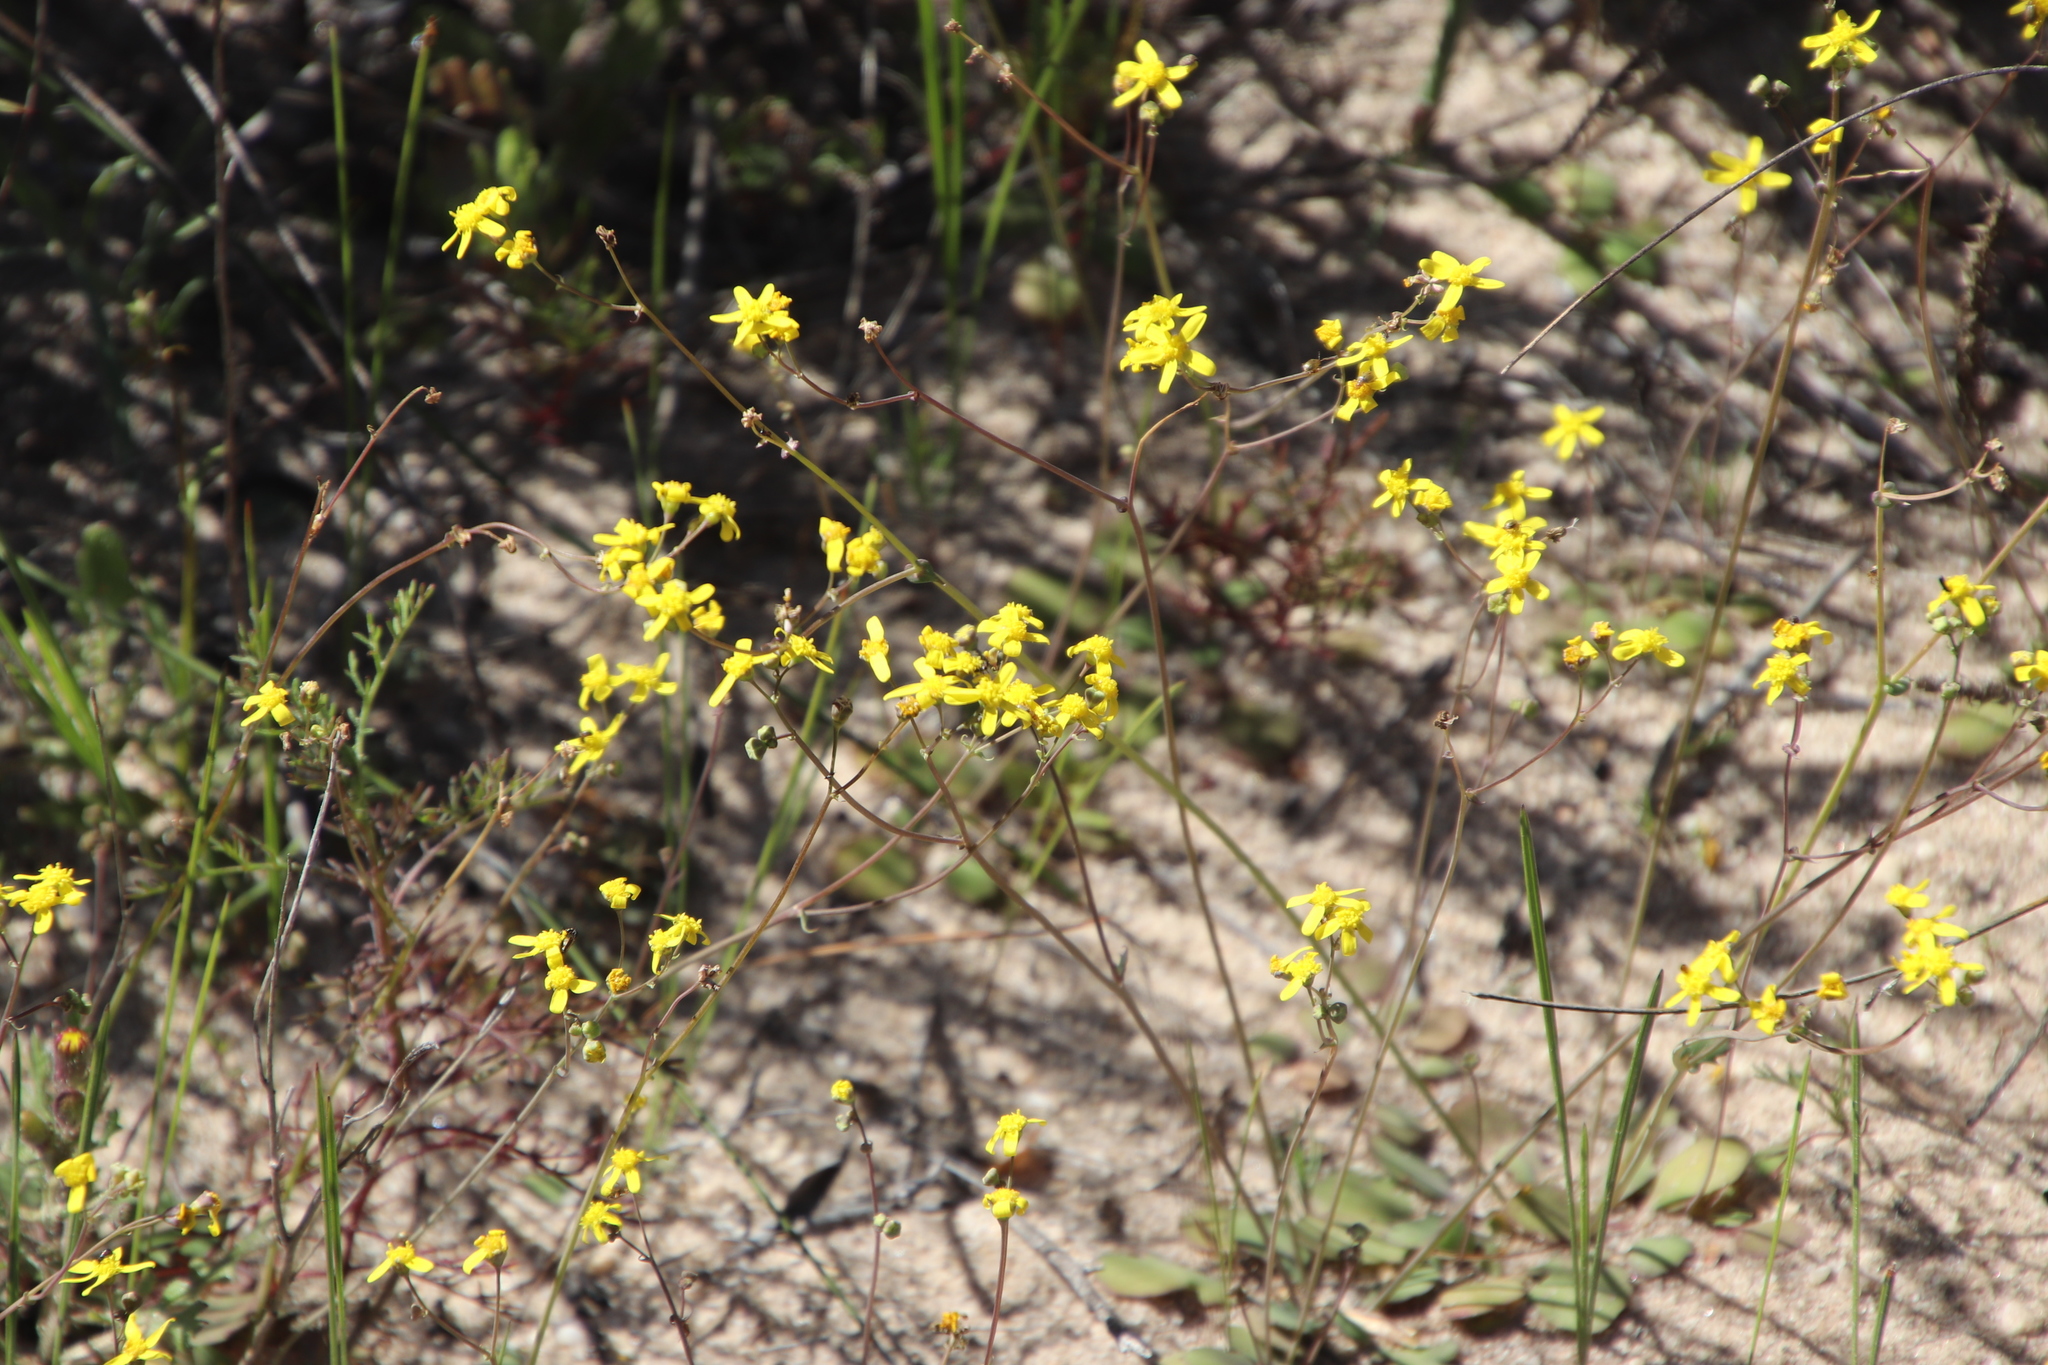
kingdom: Plantae
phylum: Tracheophyta
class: Magnoliopsida
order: Asterales
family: Asteraceae
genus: Gymnodiscus
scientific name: Gymnodiscus capillaris
